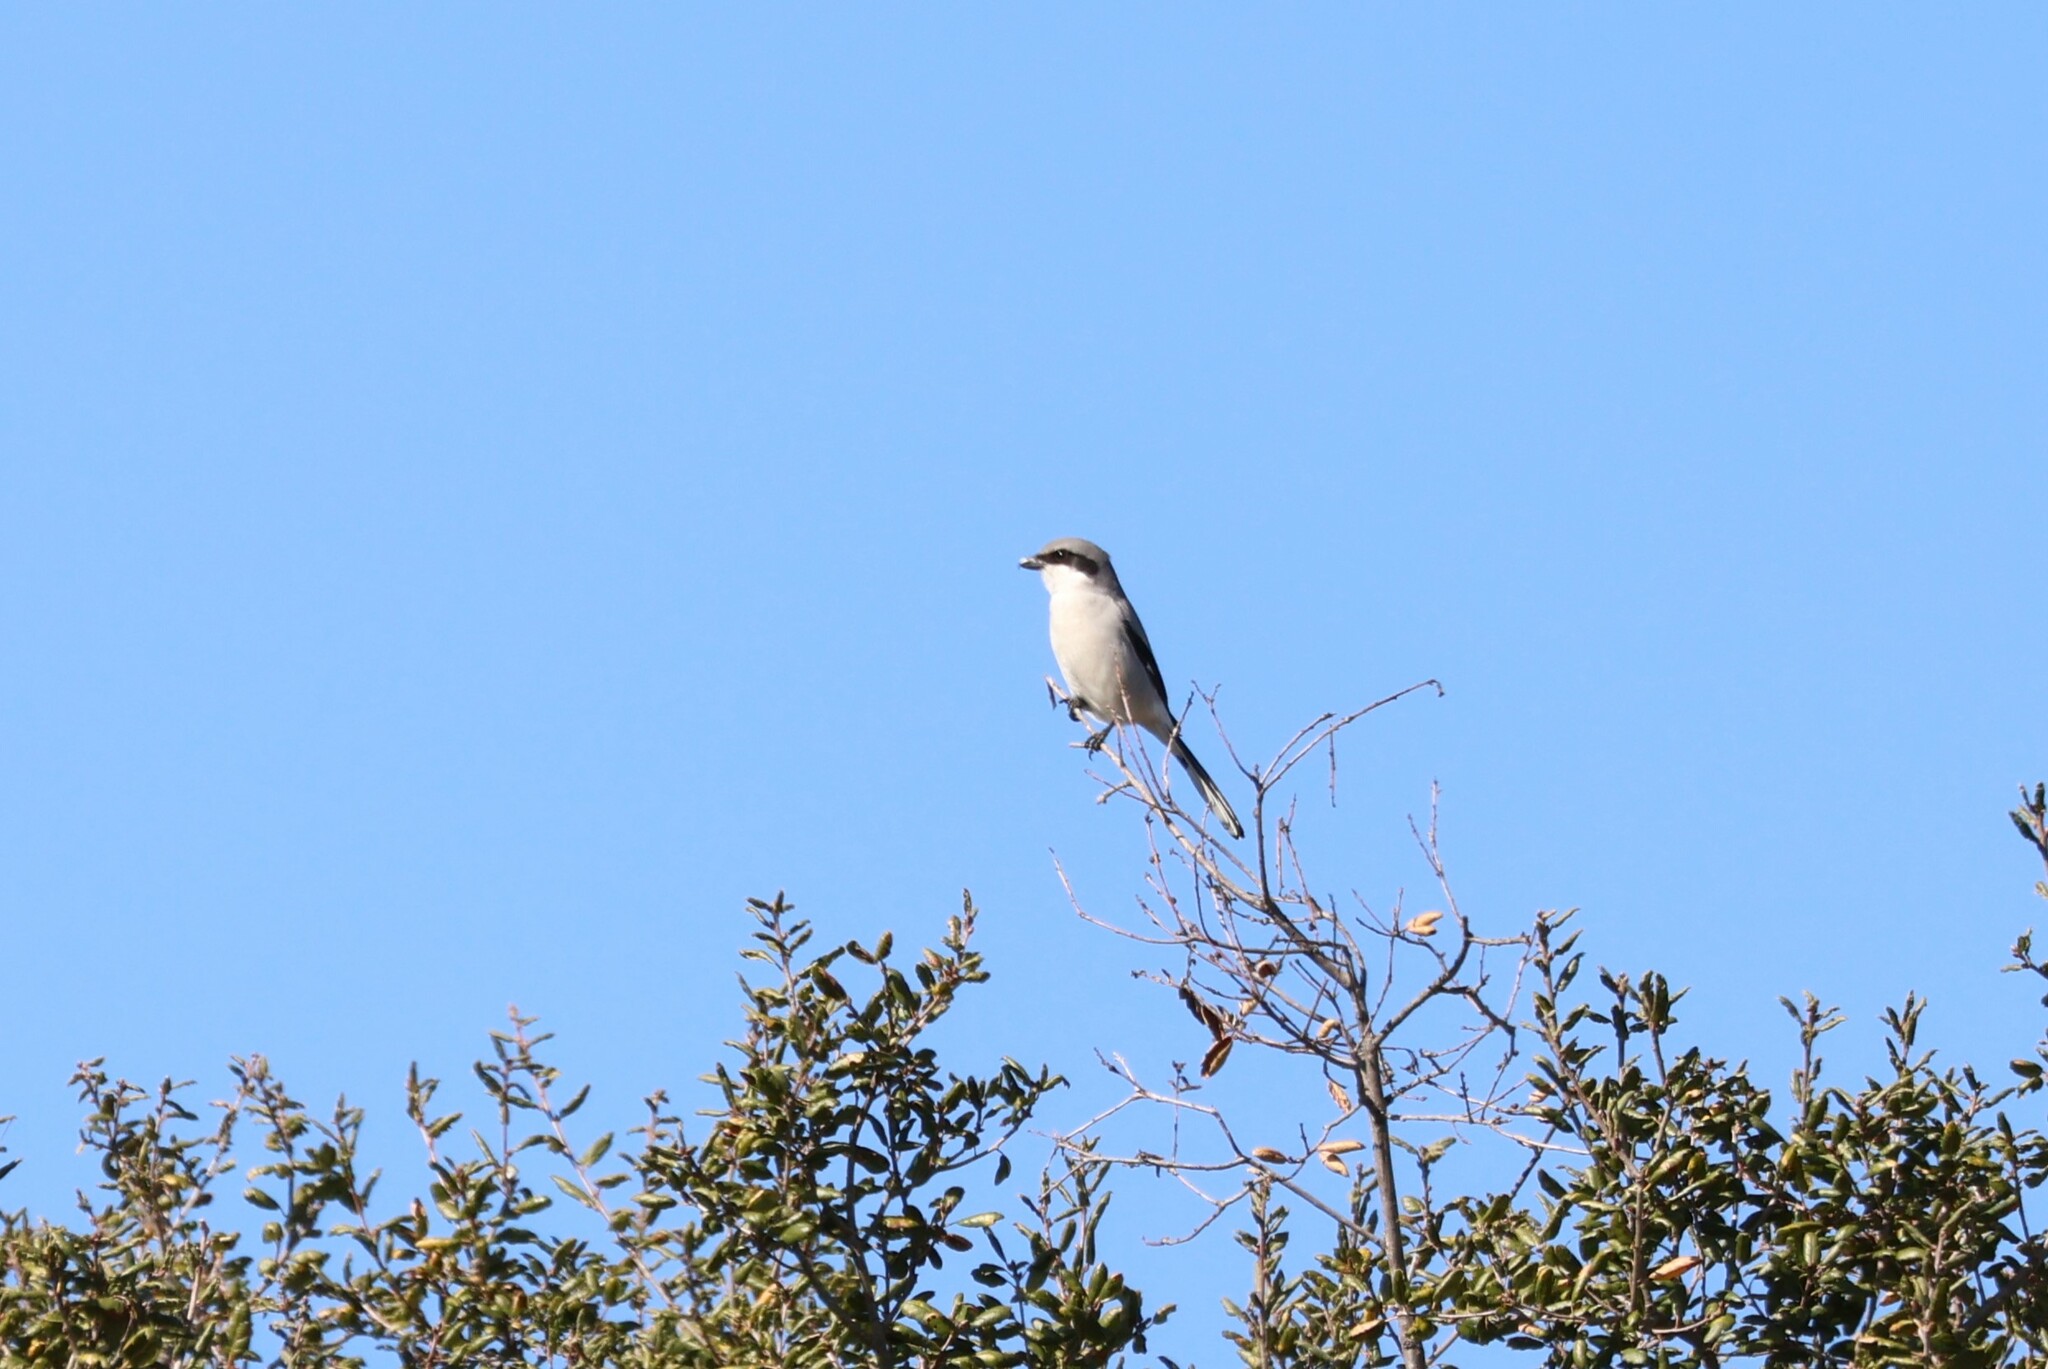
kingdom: Animalia
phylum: Chordata
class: Aves
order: Passeriformes
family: Laniidae
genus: Lanius
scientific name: Lanius ludovicianus
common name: Loggerhead shrike
